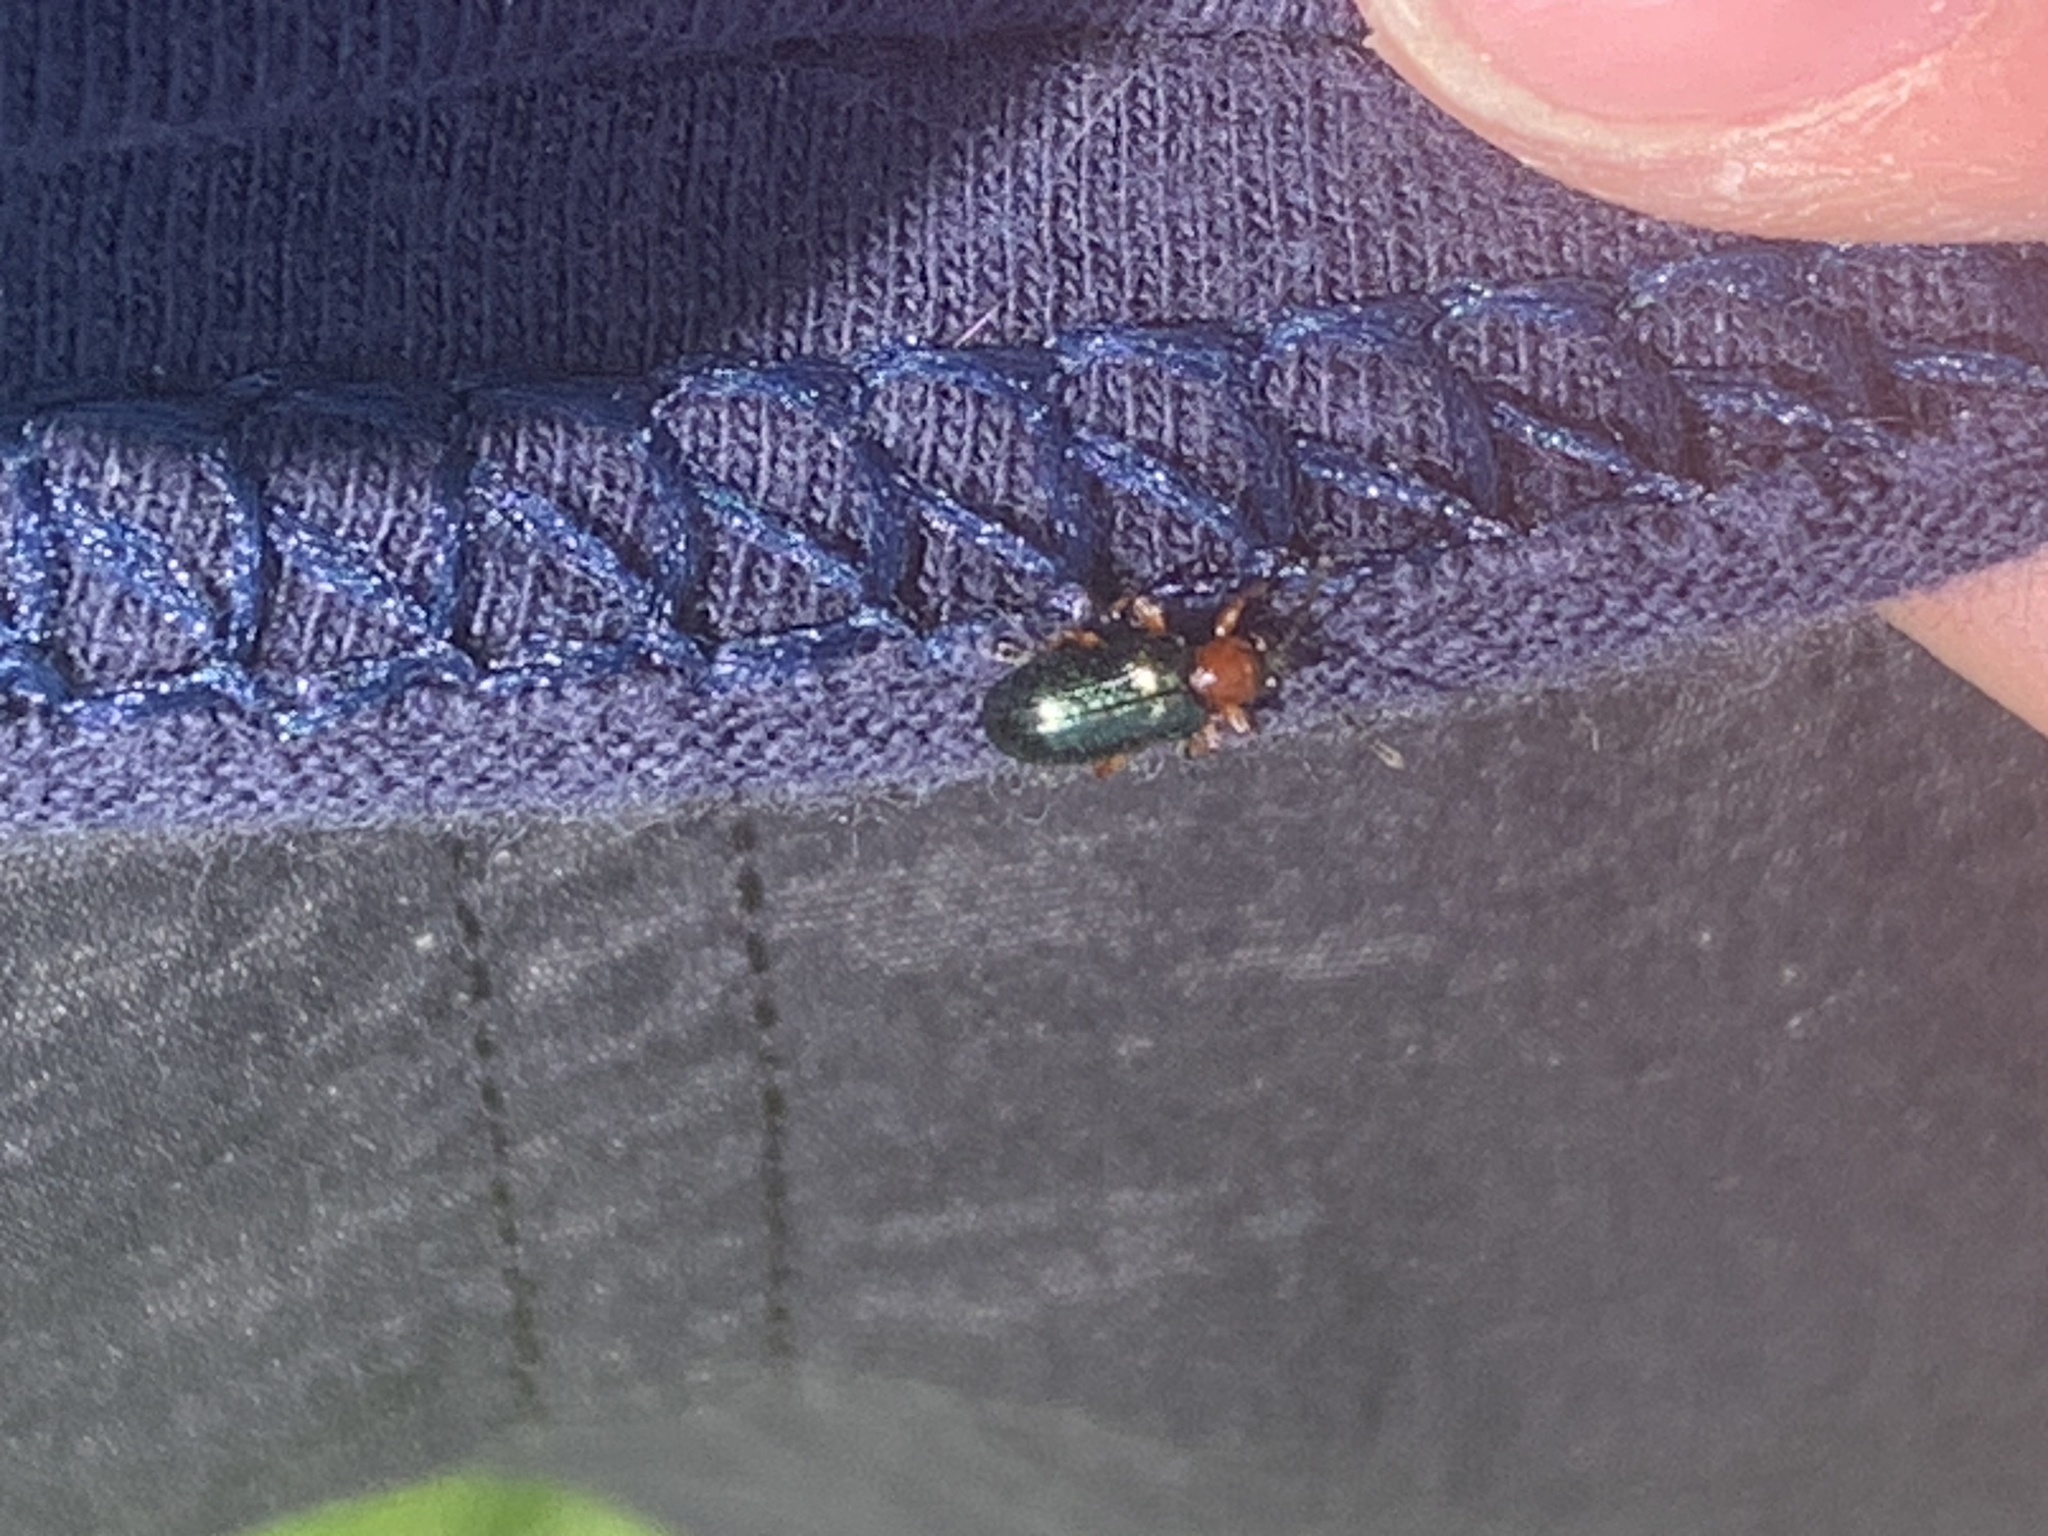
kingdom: Animalia
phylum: Arthropoda
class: Insecta
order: Coleoptera
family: Chrysomelidae
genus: Oulema
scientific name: Oulema
